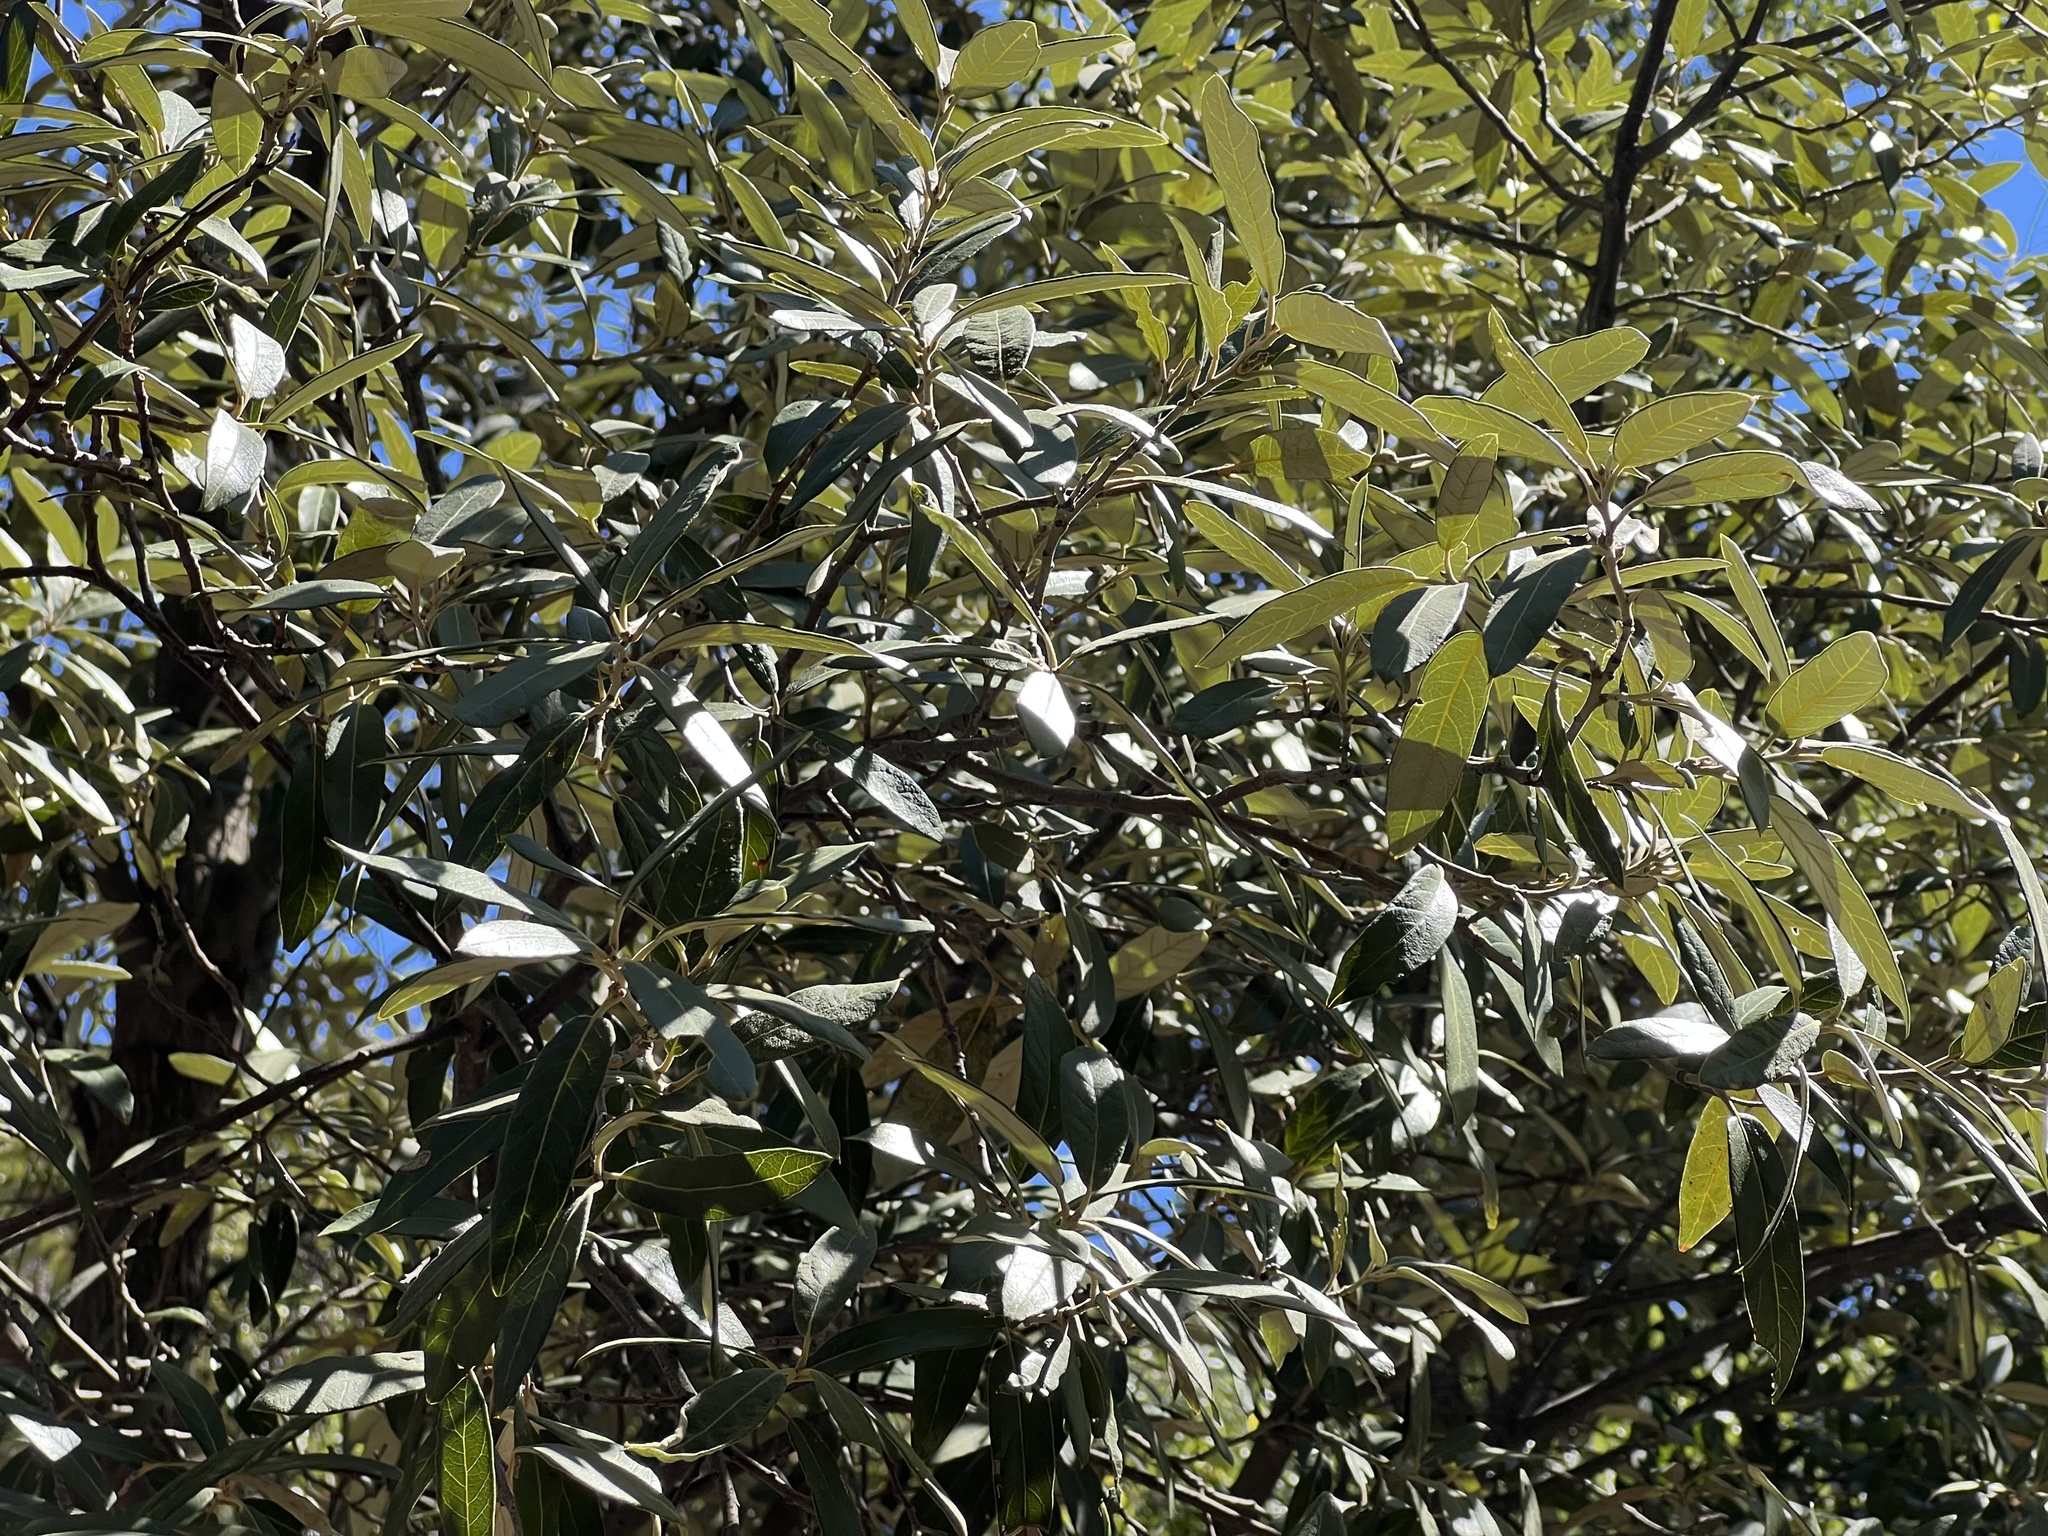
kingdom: Plantae
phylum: Tracheophyta
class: Magnoliopsida
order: Fagales
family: Fagaceae
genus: Quercus
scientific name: Quercus hypoleucoides
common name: Silverleaf oak
